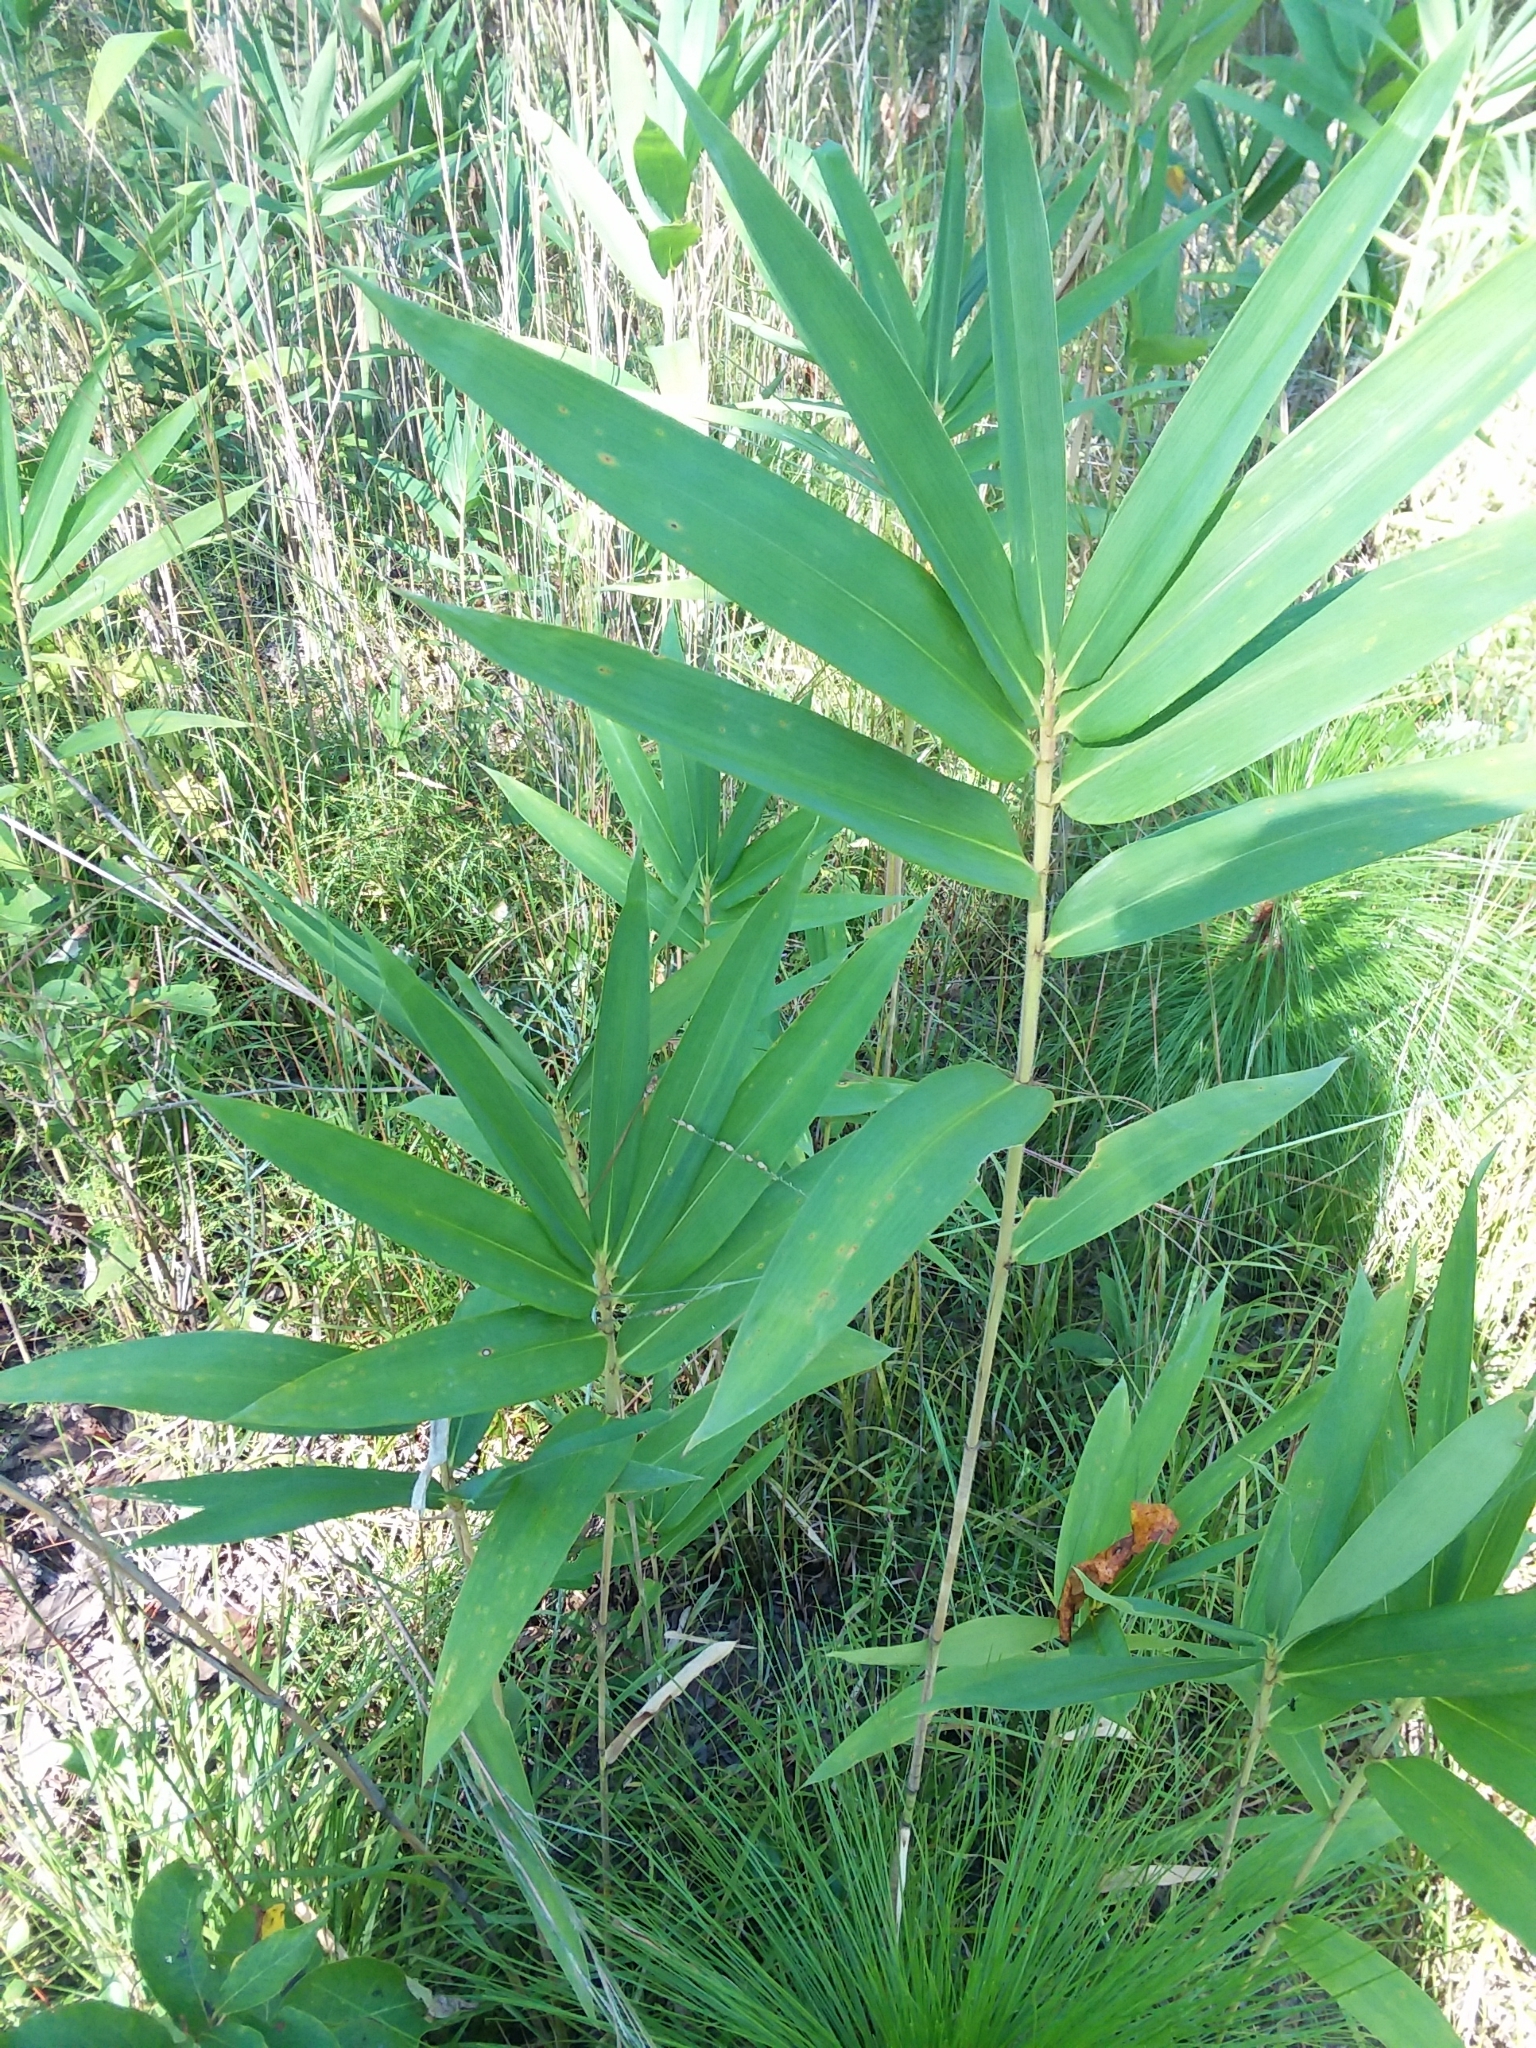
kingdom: Plantae
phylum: Tracheophyta
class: Liliopsida
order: Poales
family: Poaceae
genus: Arundinaria
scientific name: Arundinaria tecta
